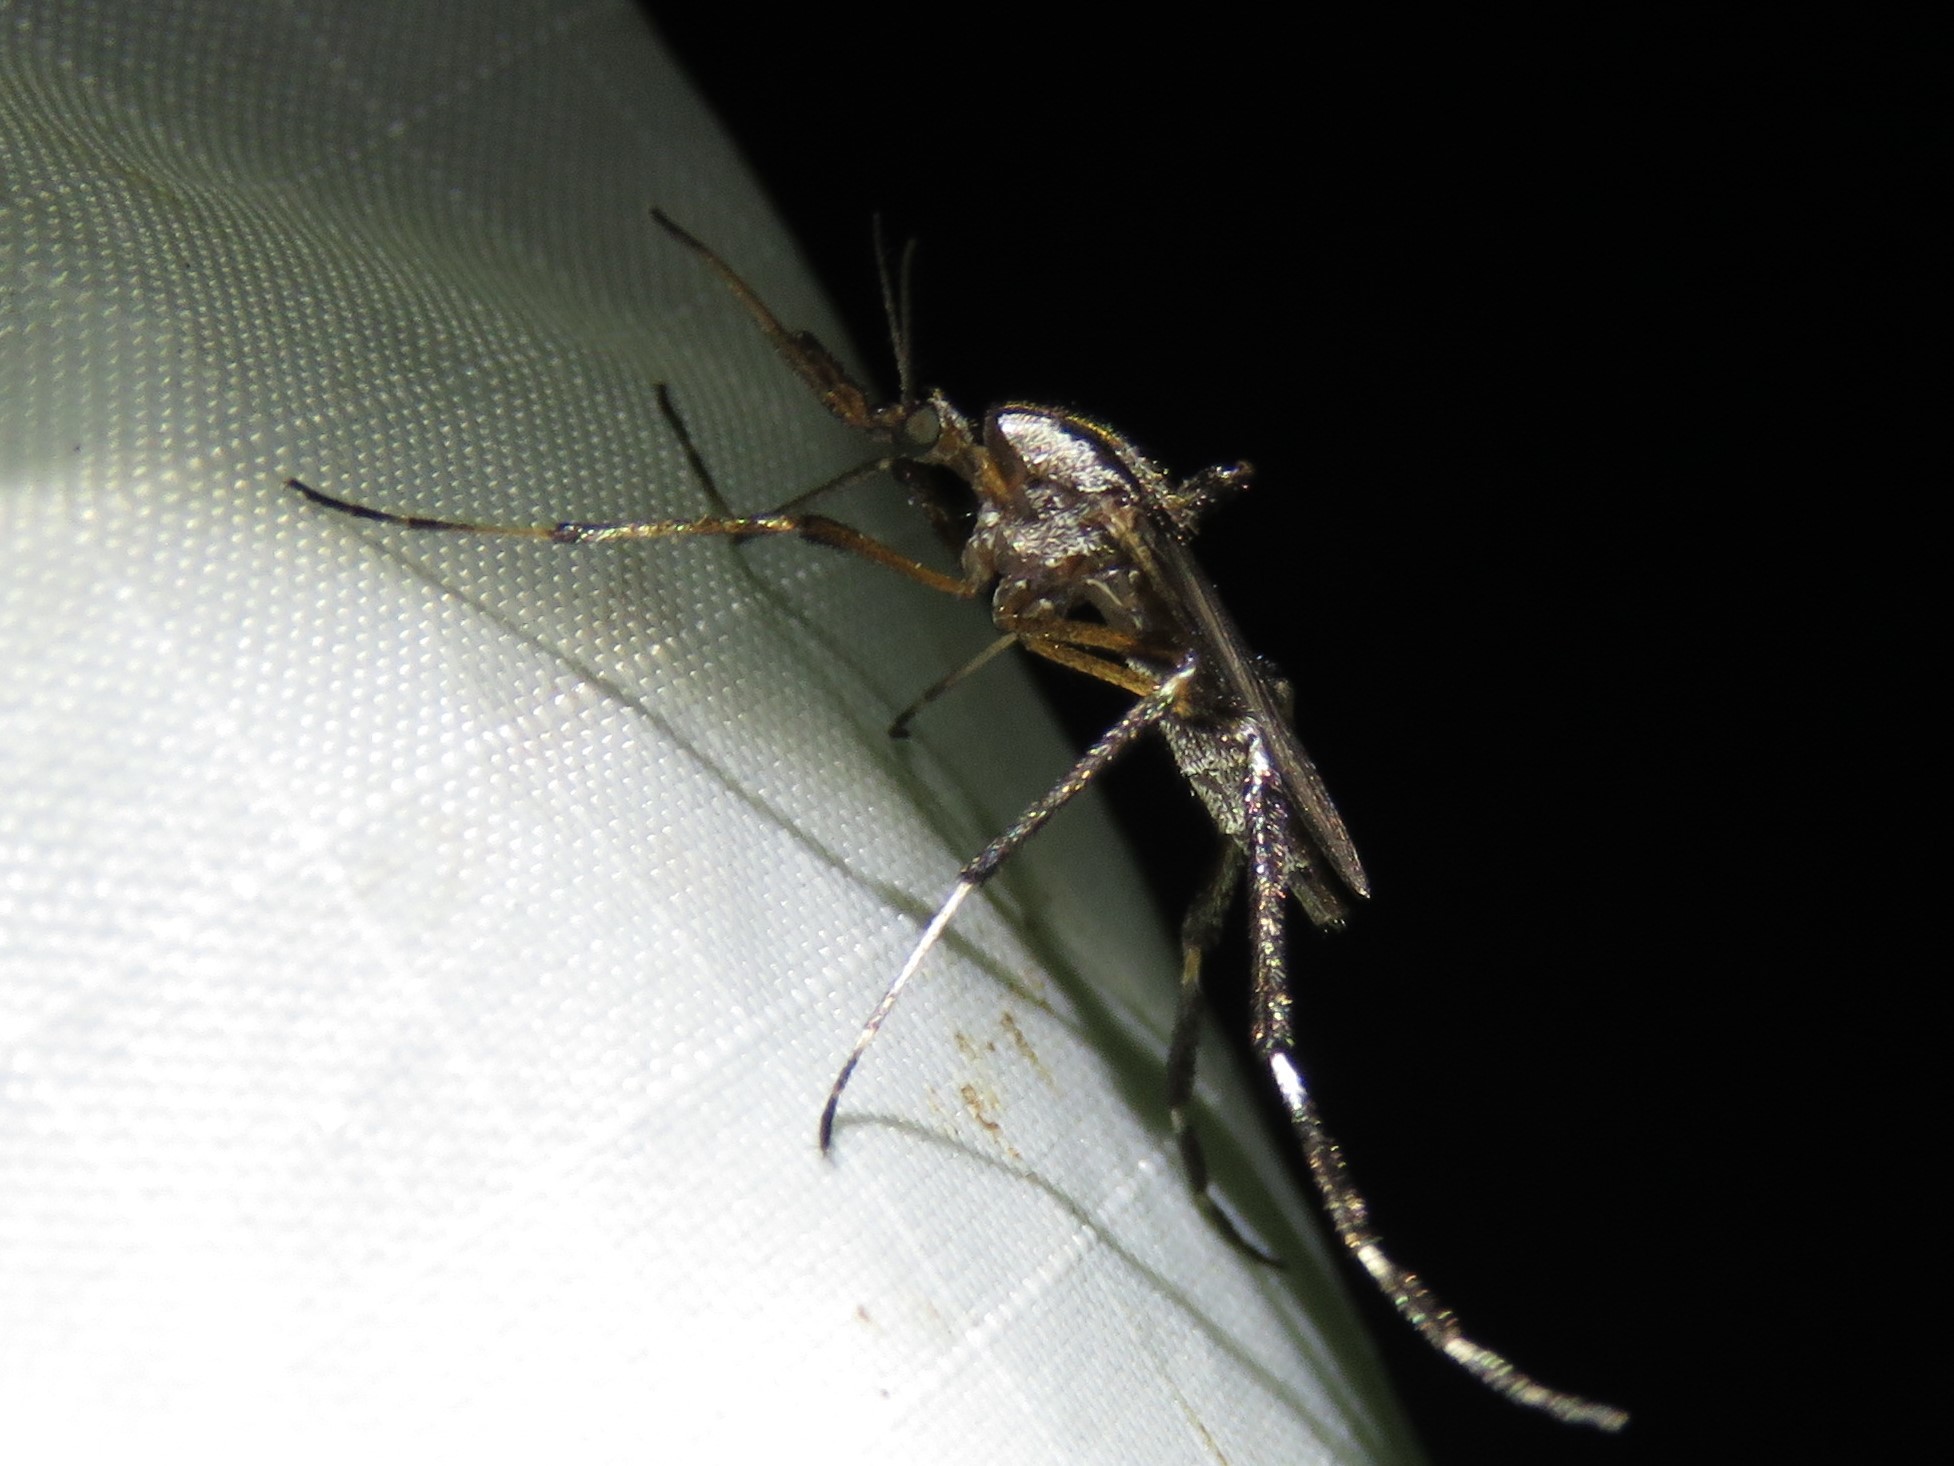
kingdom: Animalia
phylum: Arthropoda
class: Insecta
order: Diptera
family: Culicidae
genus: Psorophora
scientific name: Psorophora ciliata
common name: Gallinipper
